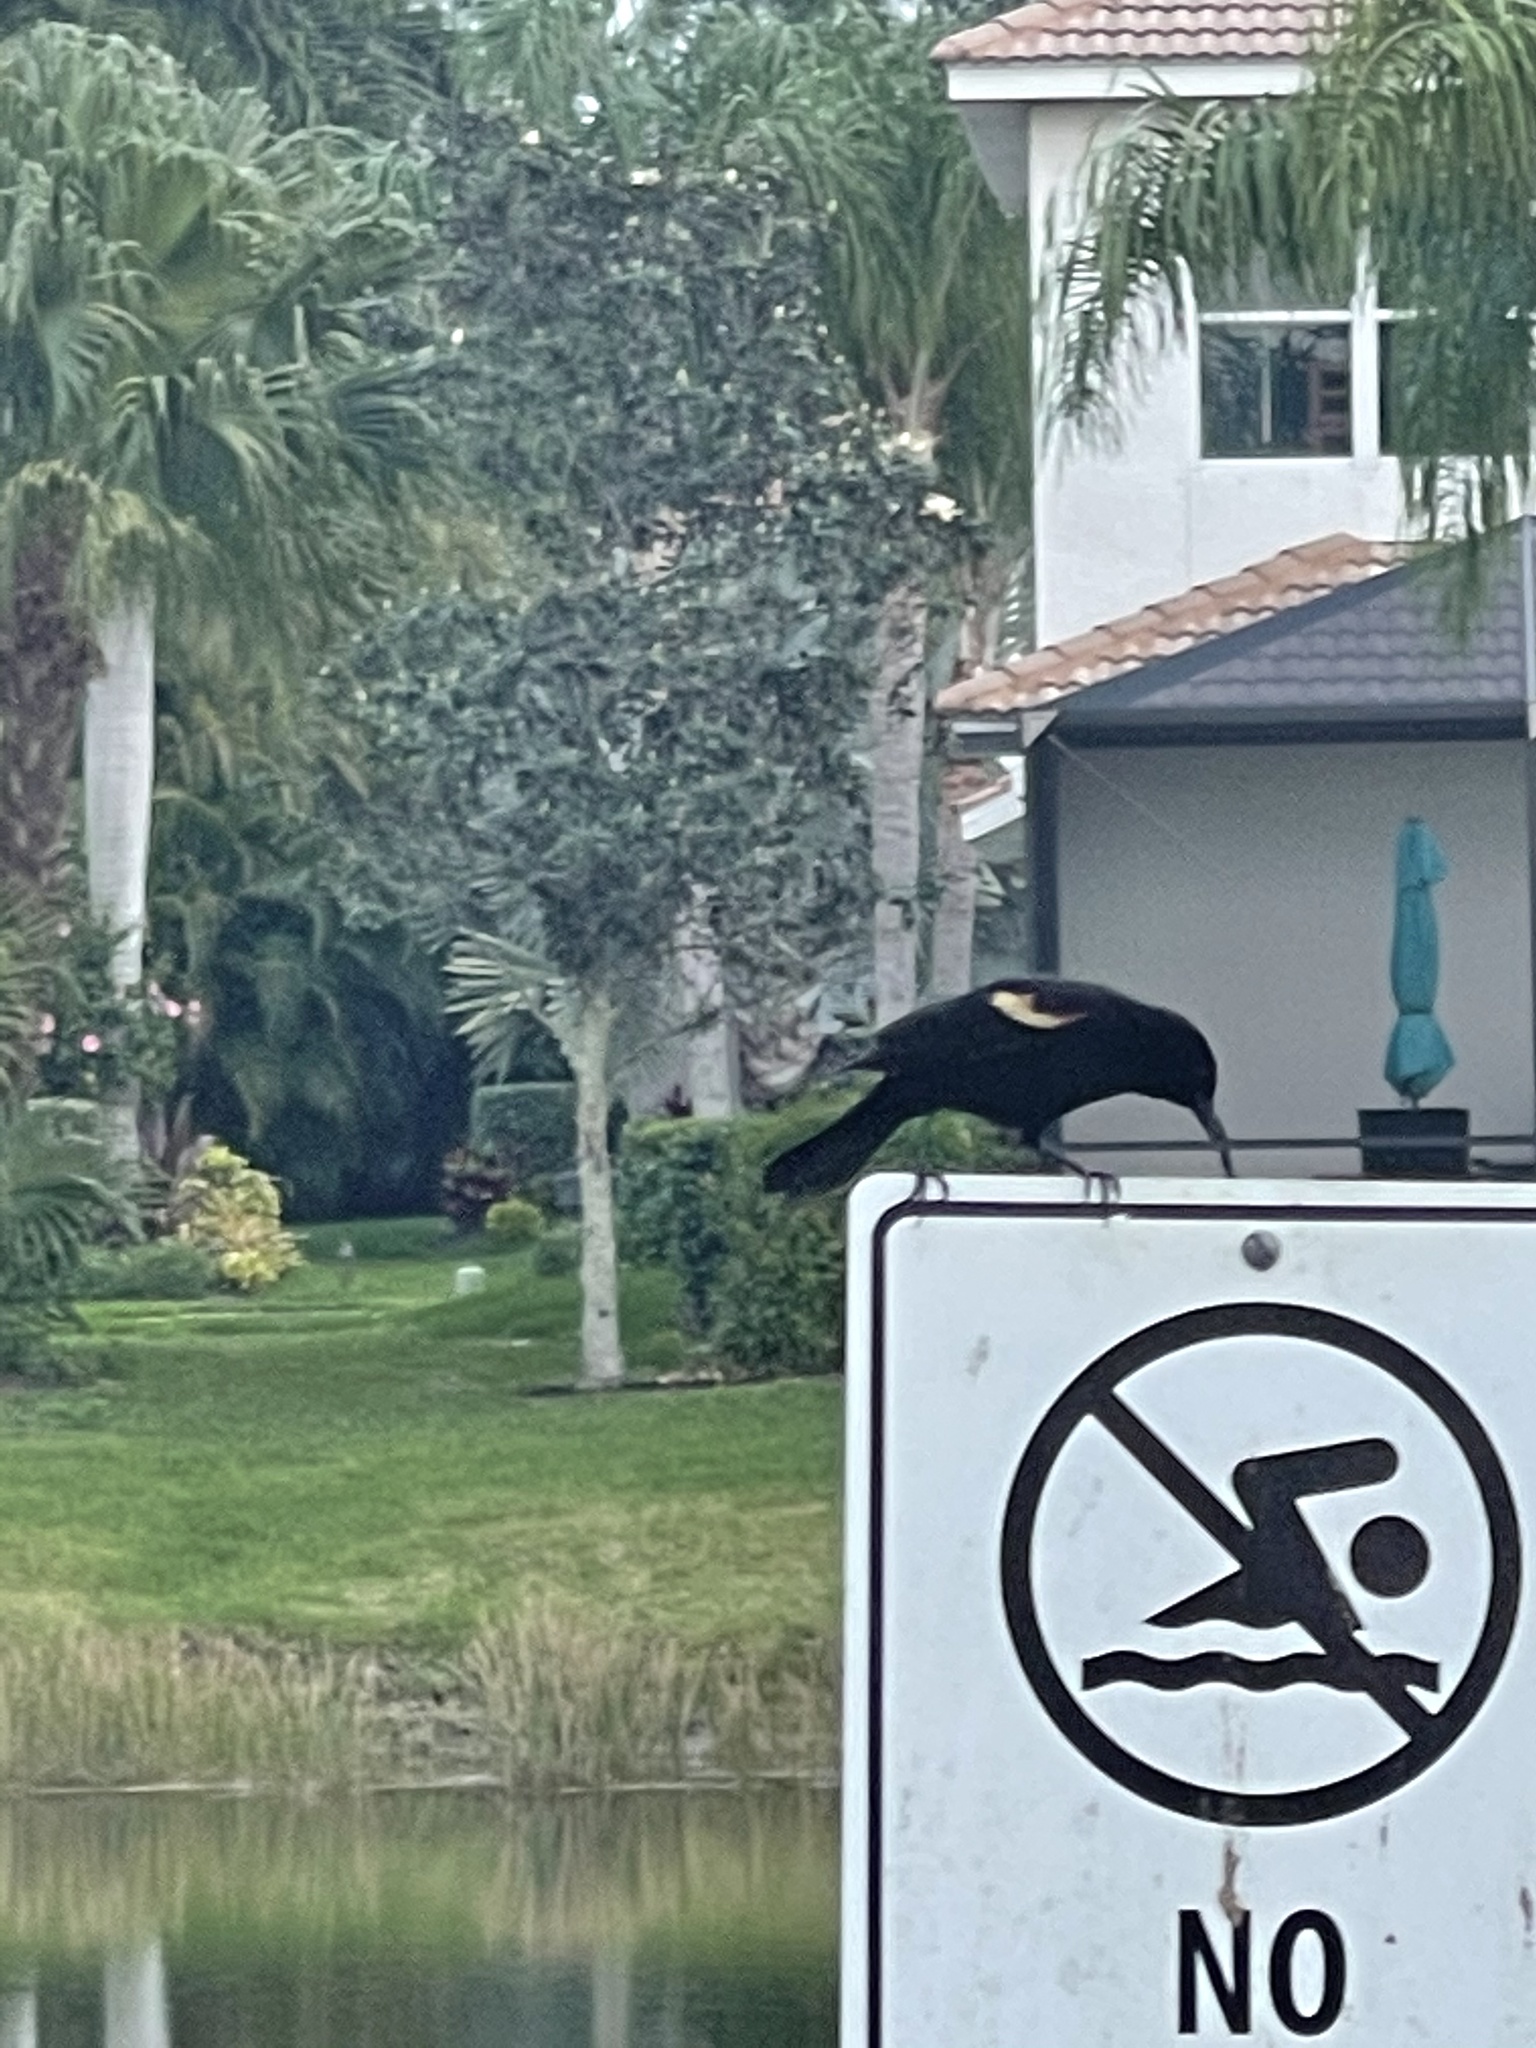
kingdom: Animalia
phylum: Chordata
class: Aves
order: Passeriformes
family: Icteridae
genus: Agelaius
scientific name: Agelaius phoeniceus
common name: Red-winged blackbird
